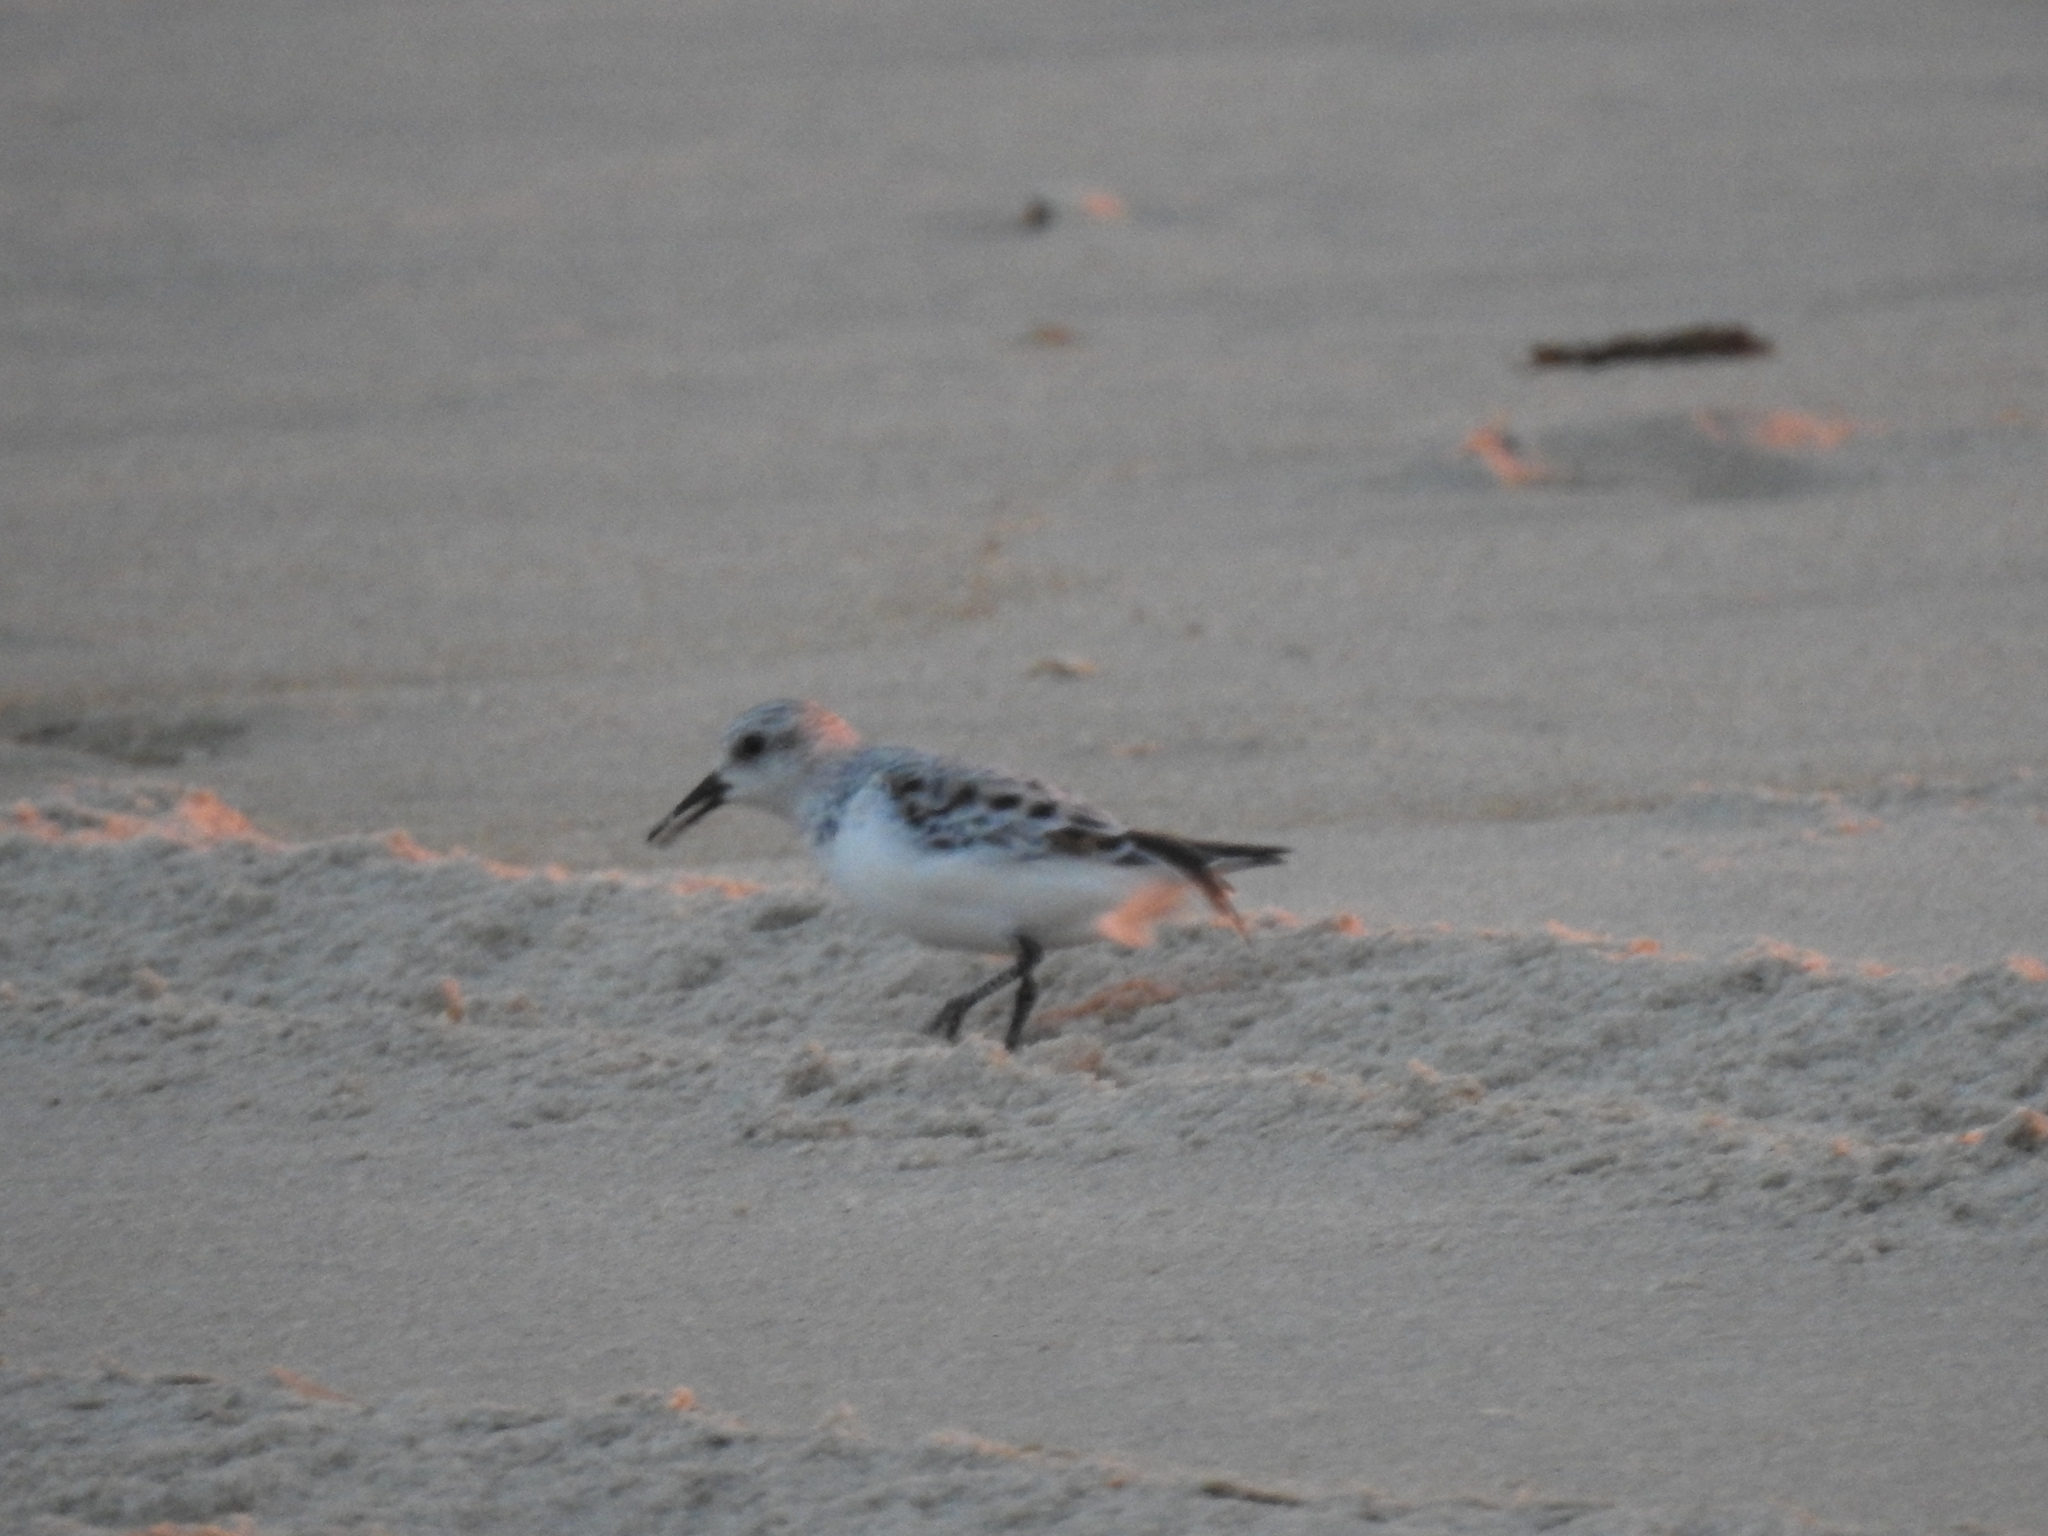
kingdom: Animalia
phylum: Chordata
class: Aves
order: Charadriiformes
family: Scolopacidae
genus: Calidris
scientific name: Calidris alba
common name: Sanderling
